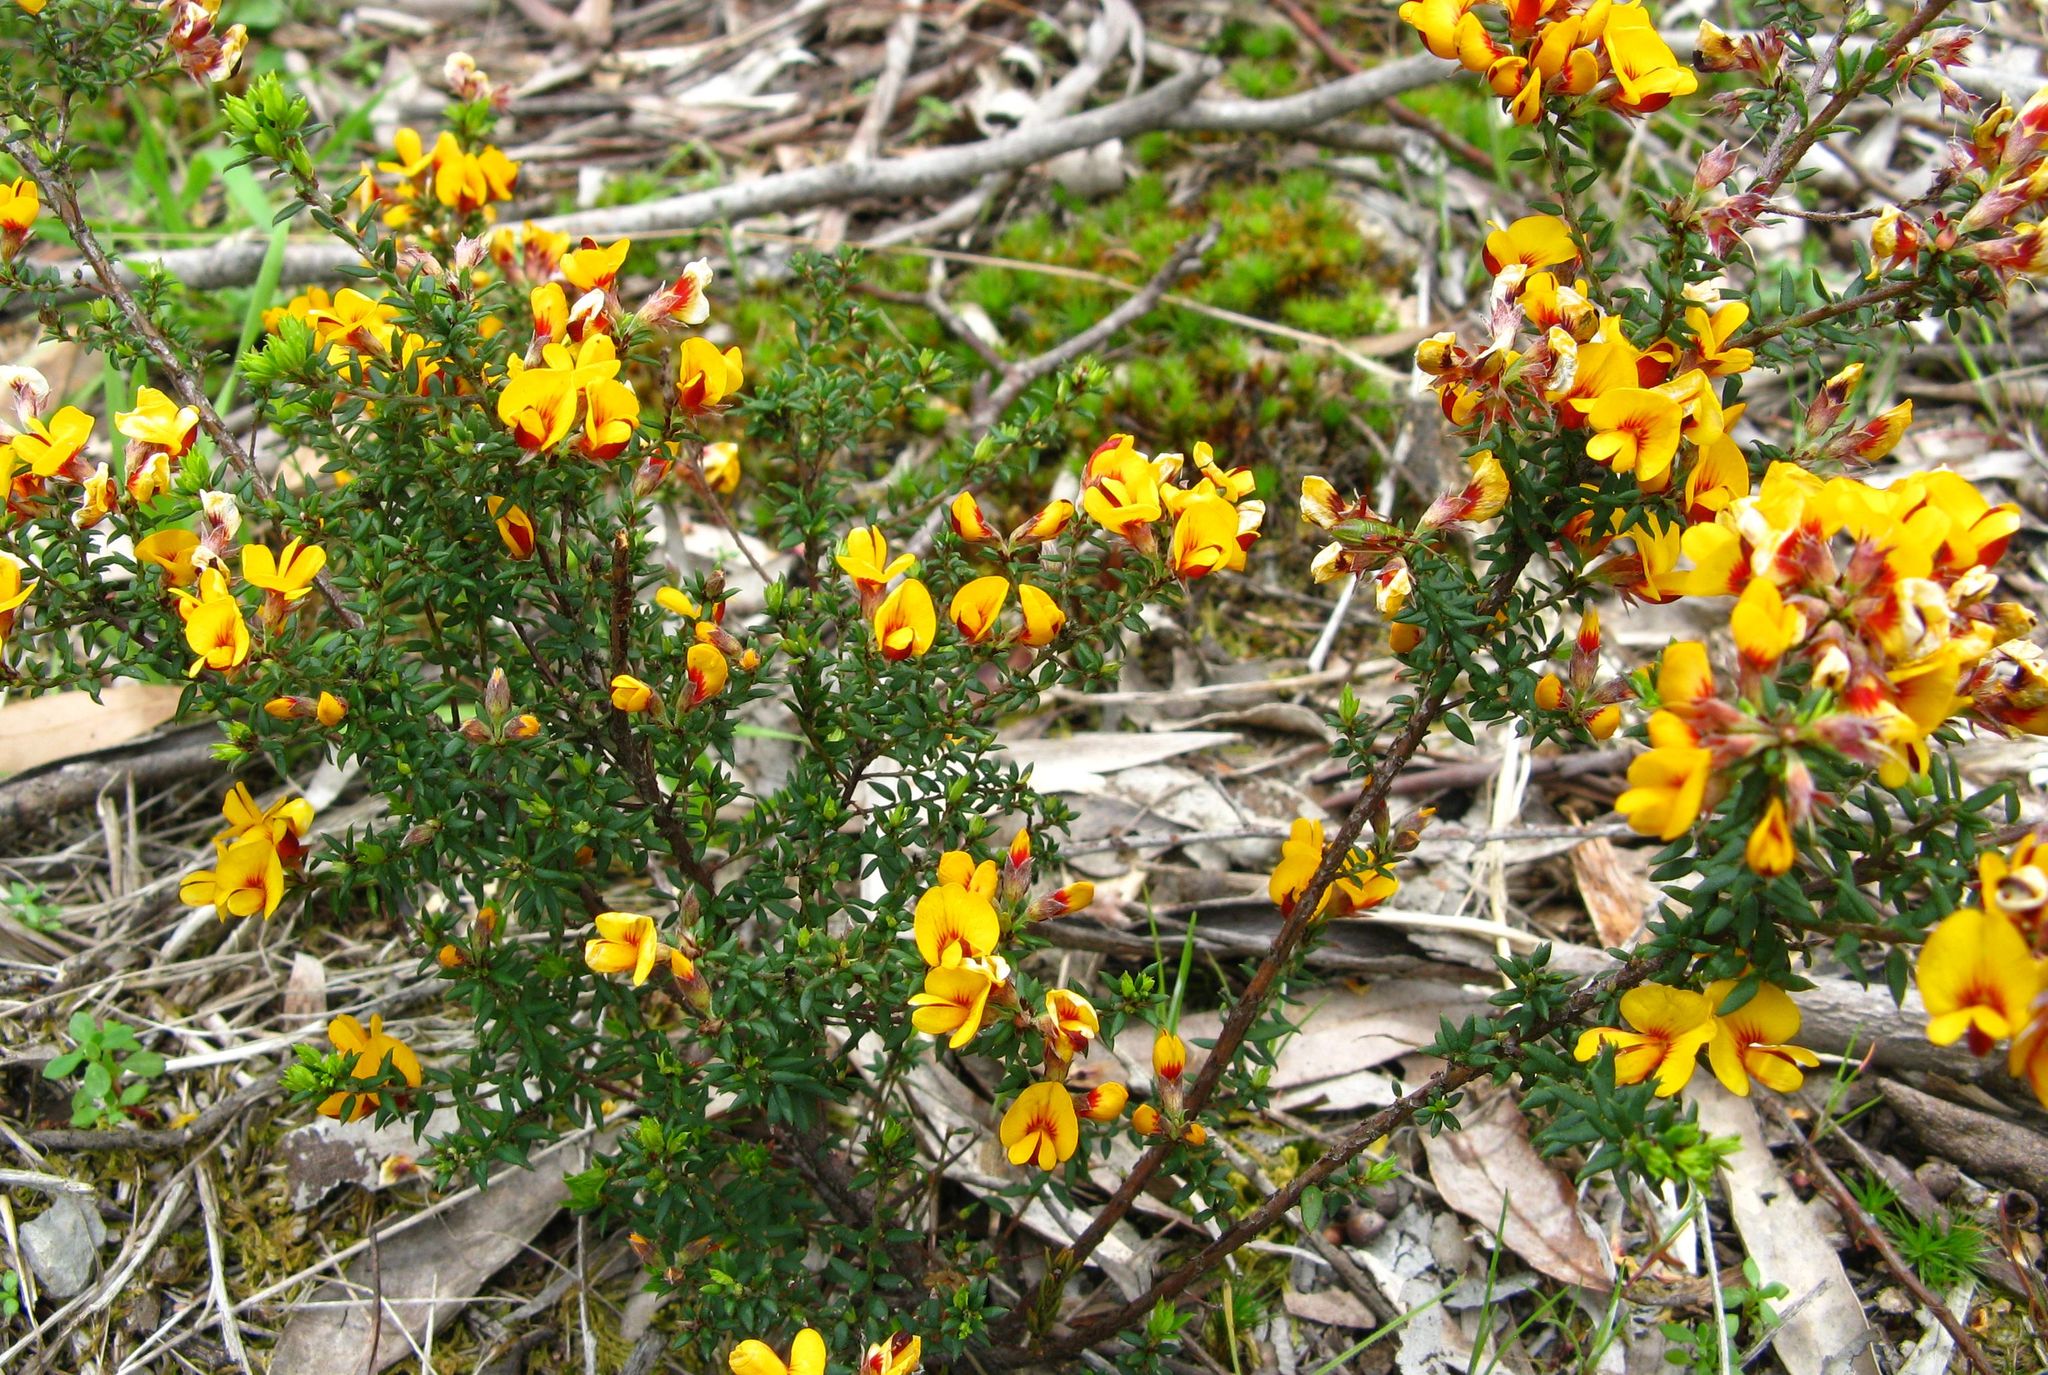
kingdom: Plantae
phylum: Tracheophyta
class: Magnoliopsida
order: Fabales
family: Fabaceae
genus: Pultenaea
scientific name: Pultenaea gunnii
